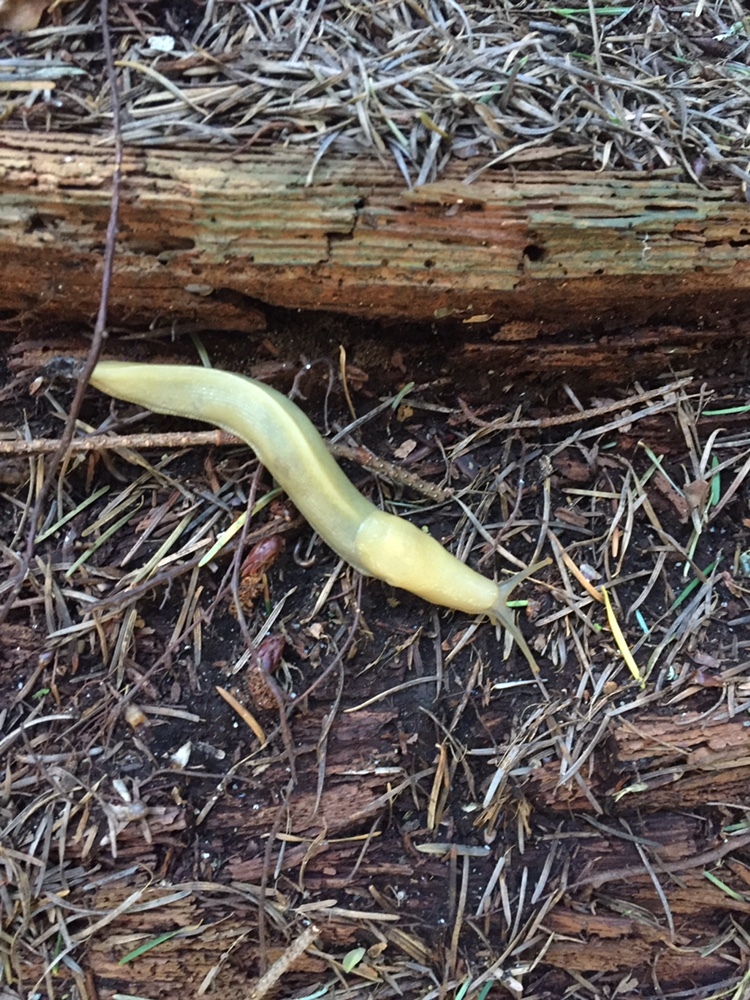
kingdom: Animalia
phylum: Mollusca
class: Gastropoda
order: Stylommatophora
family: Ariolimacidae
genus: Ariolimax
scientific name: Ariolimax columbianus
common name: Pacific banana slug
